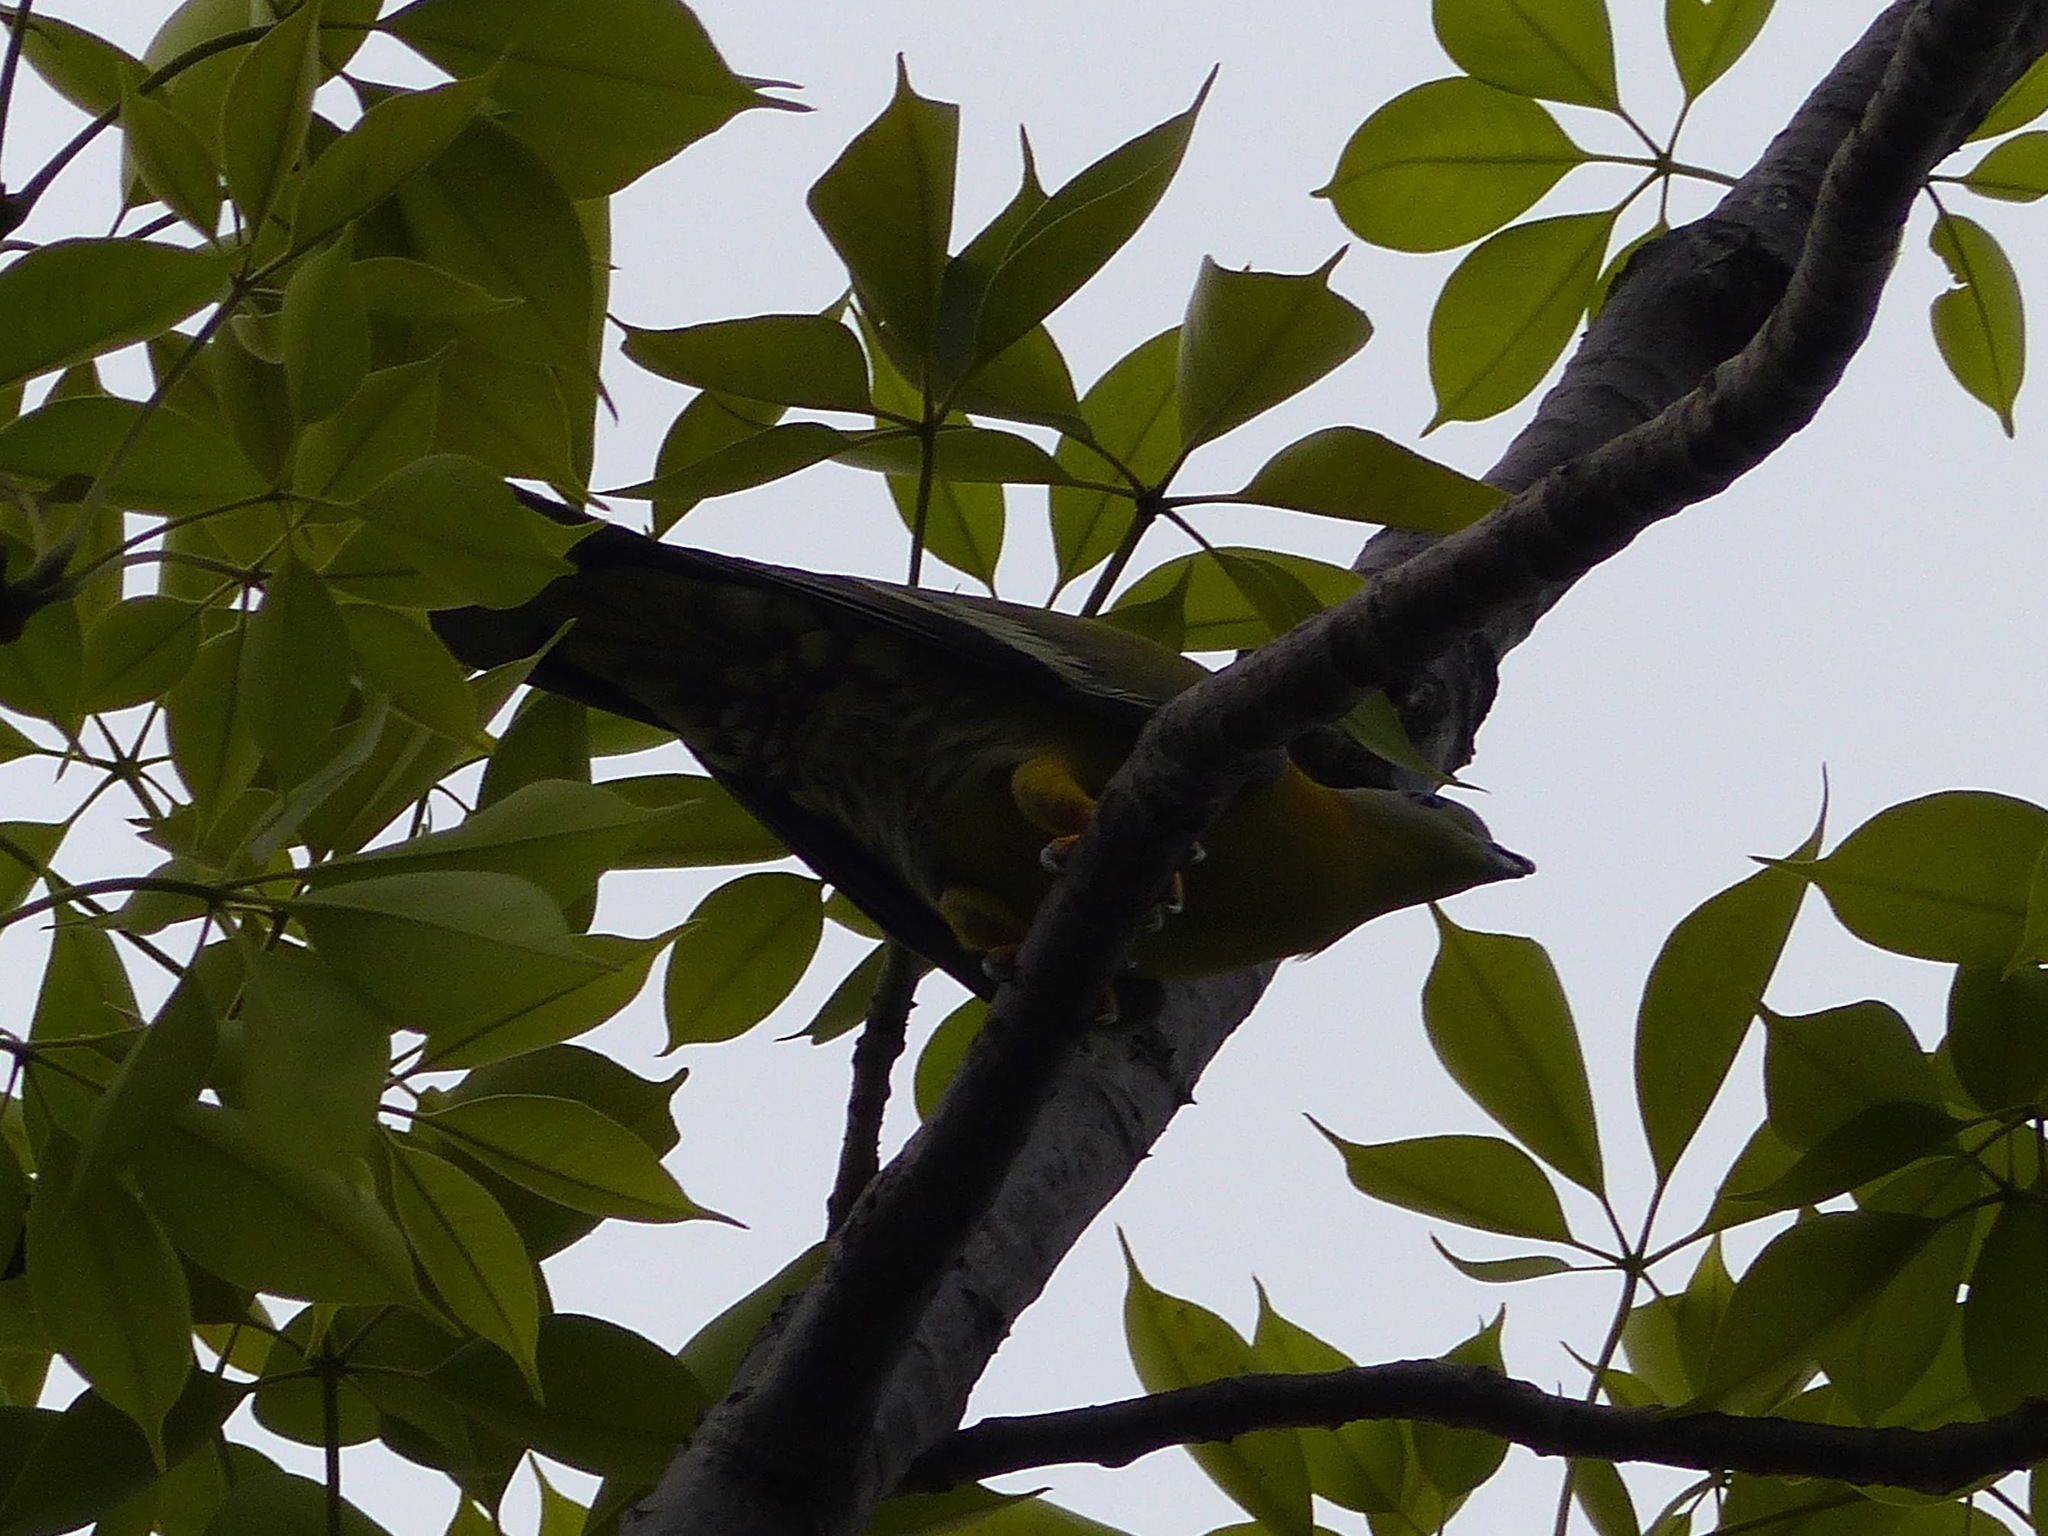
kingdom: Animalia
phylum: Chordata
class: Aves
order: Columbiformes
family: Columbidae
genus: Treron
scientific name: Treron phoenicopterus
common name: Yellow-footed green pigeon
